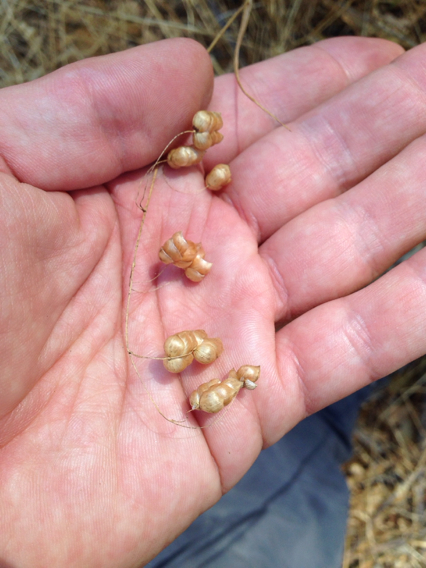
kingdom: Plantae
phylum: Tracheophyta
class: Liliopsida
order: Poales
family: Poaceae
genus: Briza
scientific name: Briza maxima
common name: Big quakinggrass
